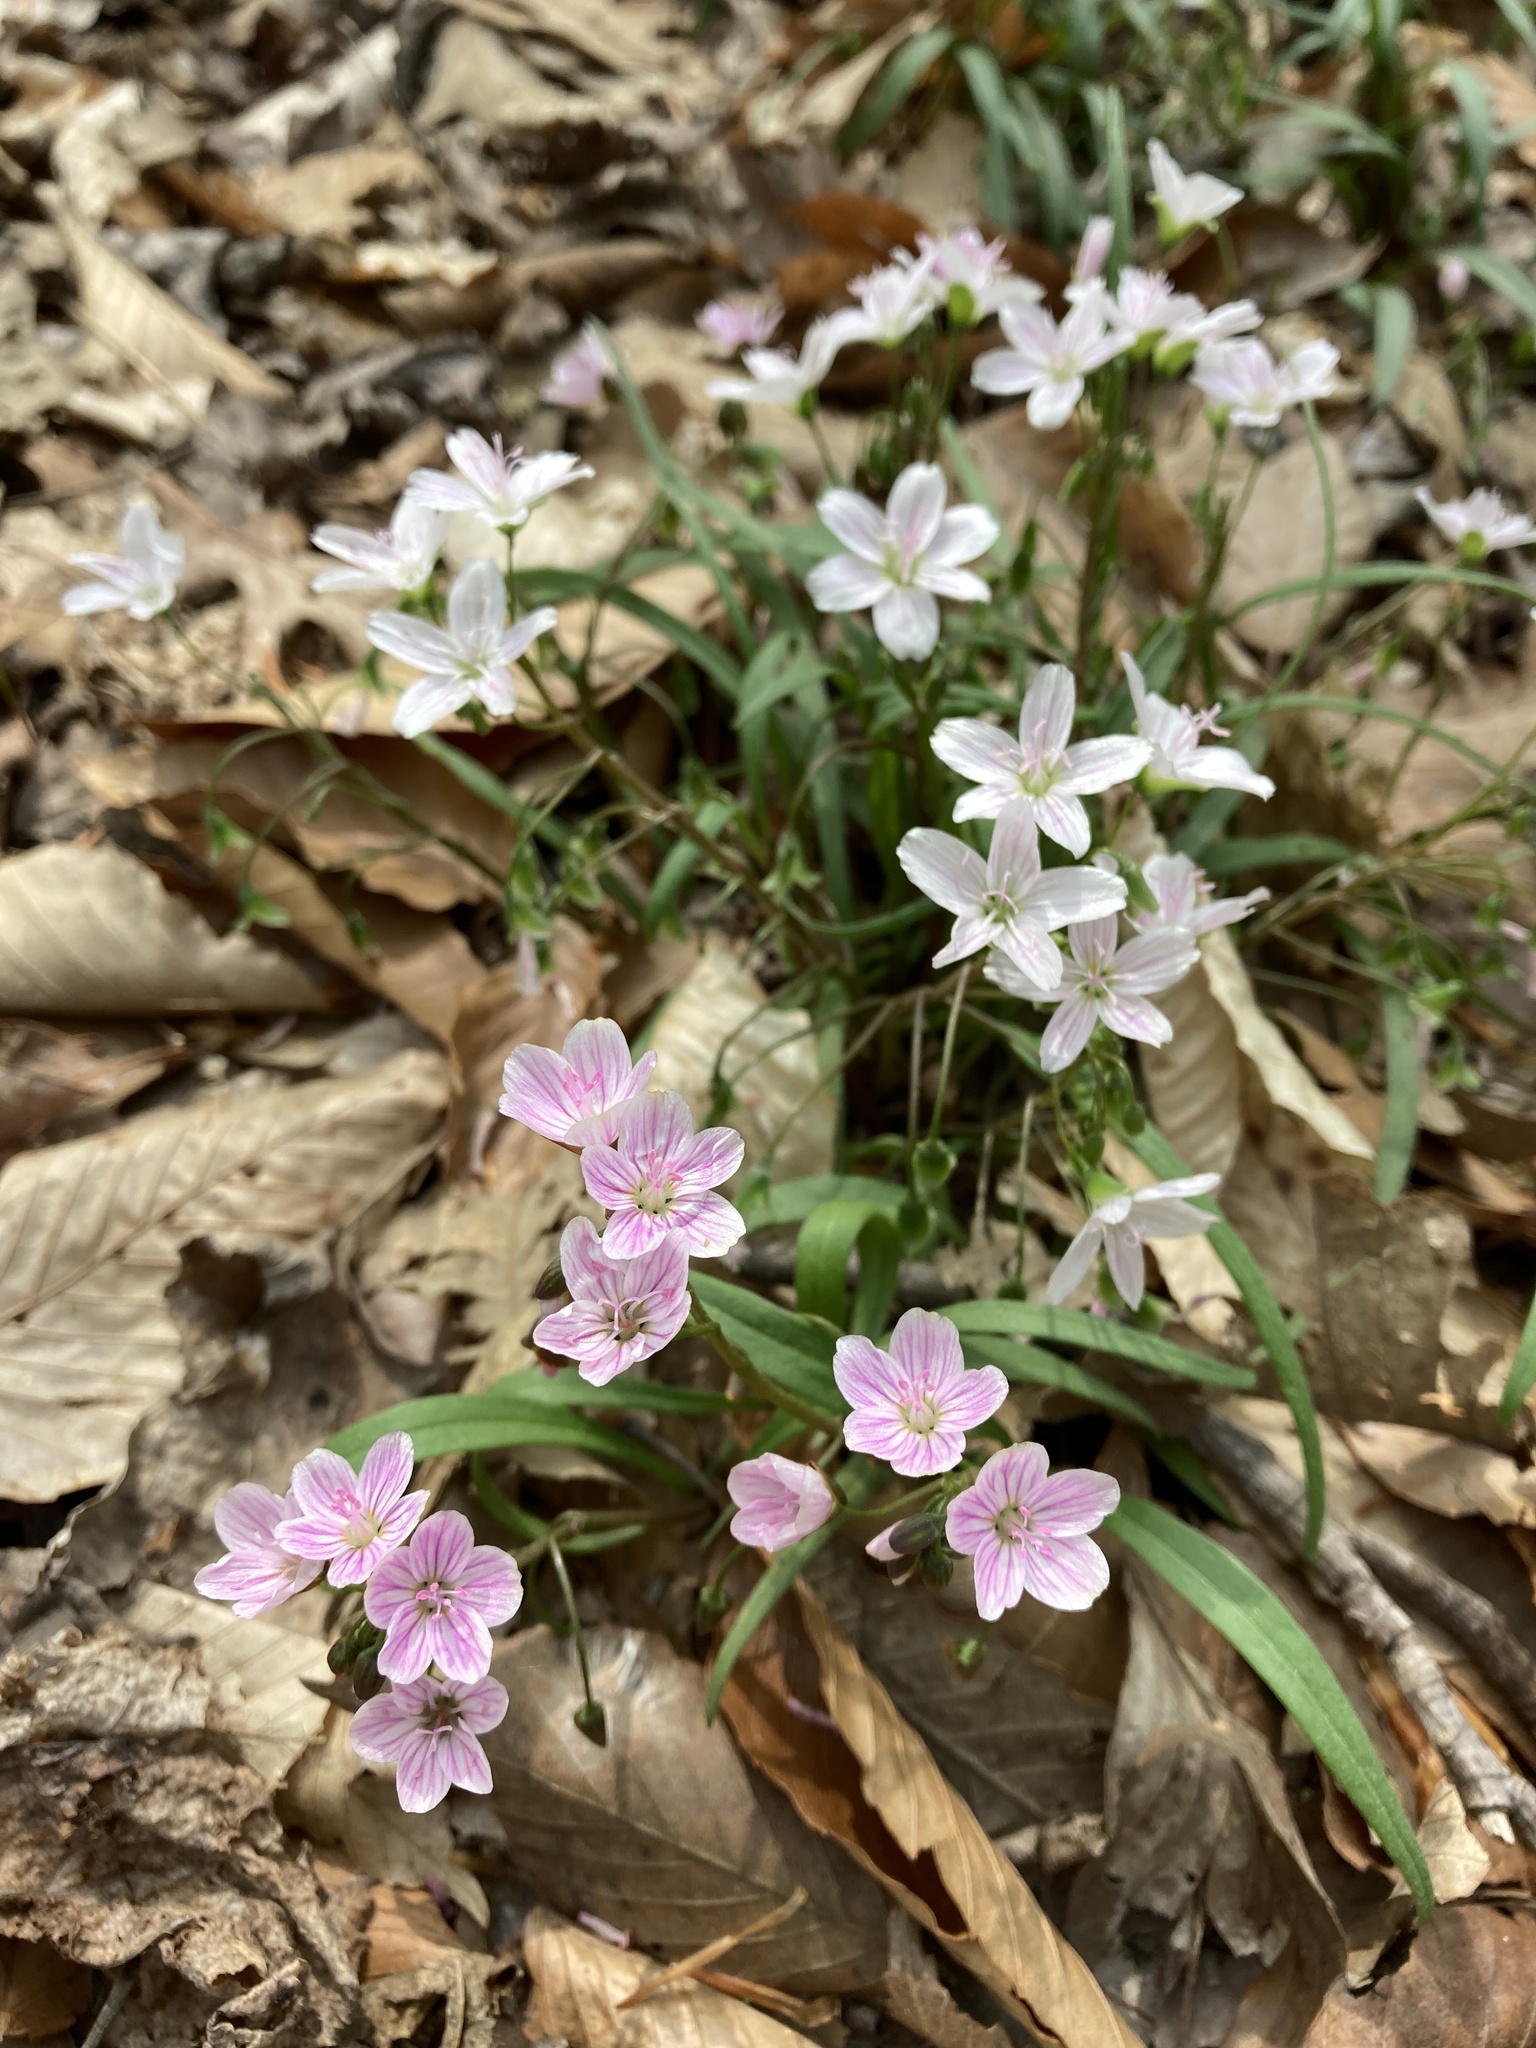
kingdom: Plantae
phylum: Tracheophyta
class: Magnoliopsida
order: Caryophyllales
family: Montiaceae
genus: Claytonia
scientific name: Claytonia virginica
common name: Virginia springbeauty
